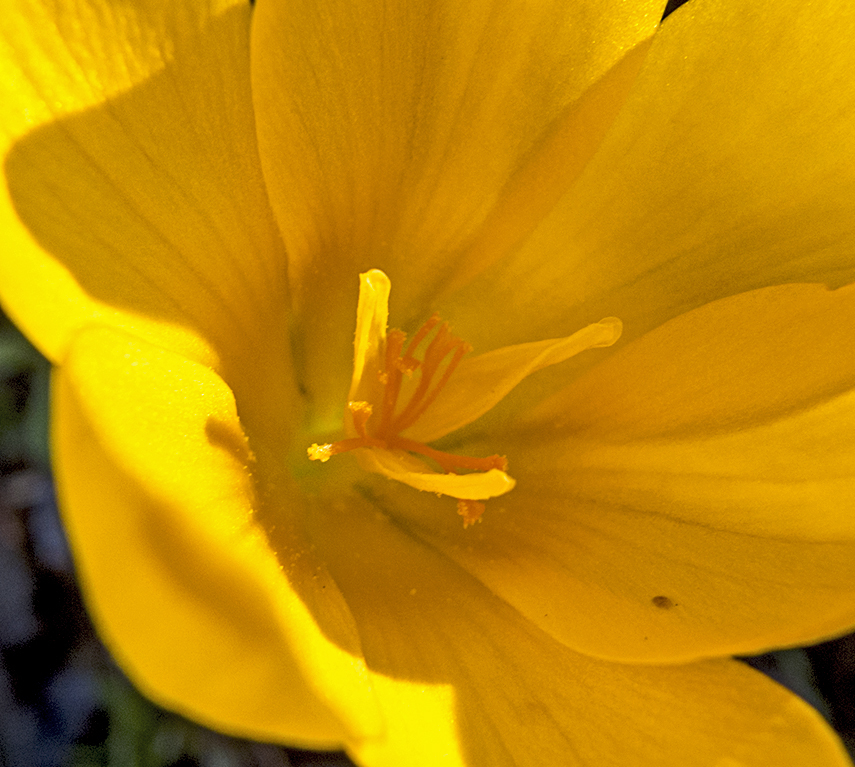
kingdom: Plantae
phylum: Tracheophyta
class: Liliopsida
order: Asparagales
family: Iridaceae
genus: Crocus
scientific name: Crocus olivieri
